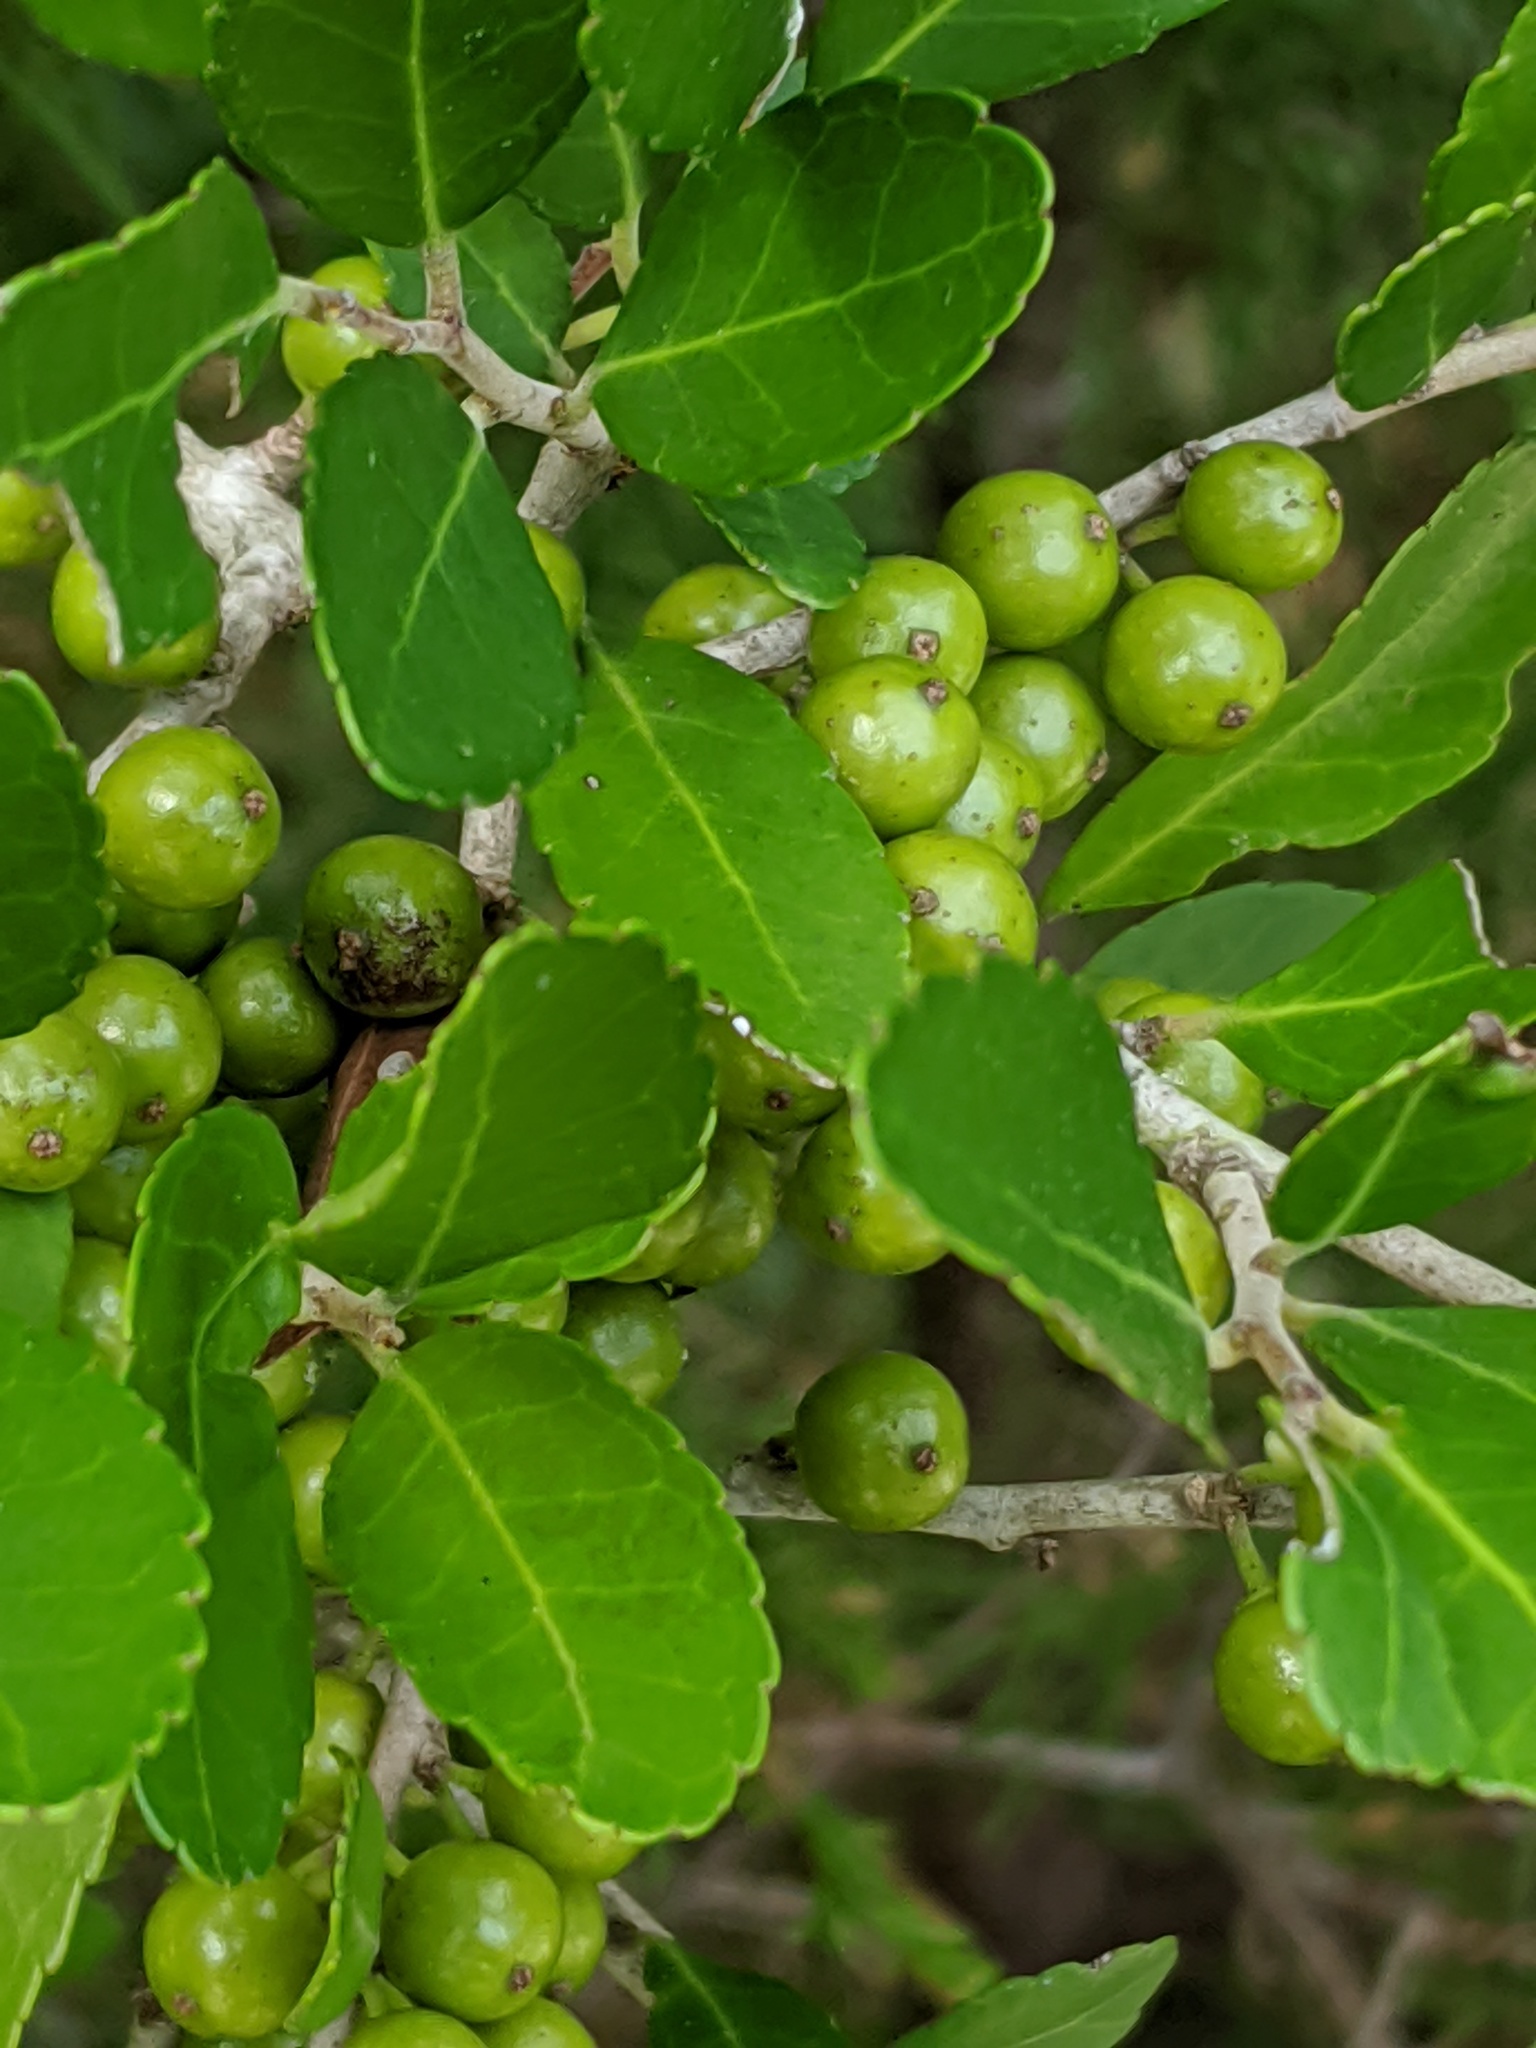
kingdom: Plantae
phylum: Tracheophyta
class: Magnoliopsida
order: Aquifoliales
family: Aquifoliaceae
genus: Ilex
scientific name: Ilex vomitoria
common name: Yaupon holly
